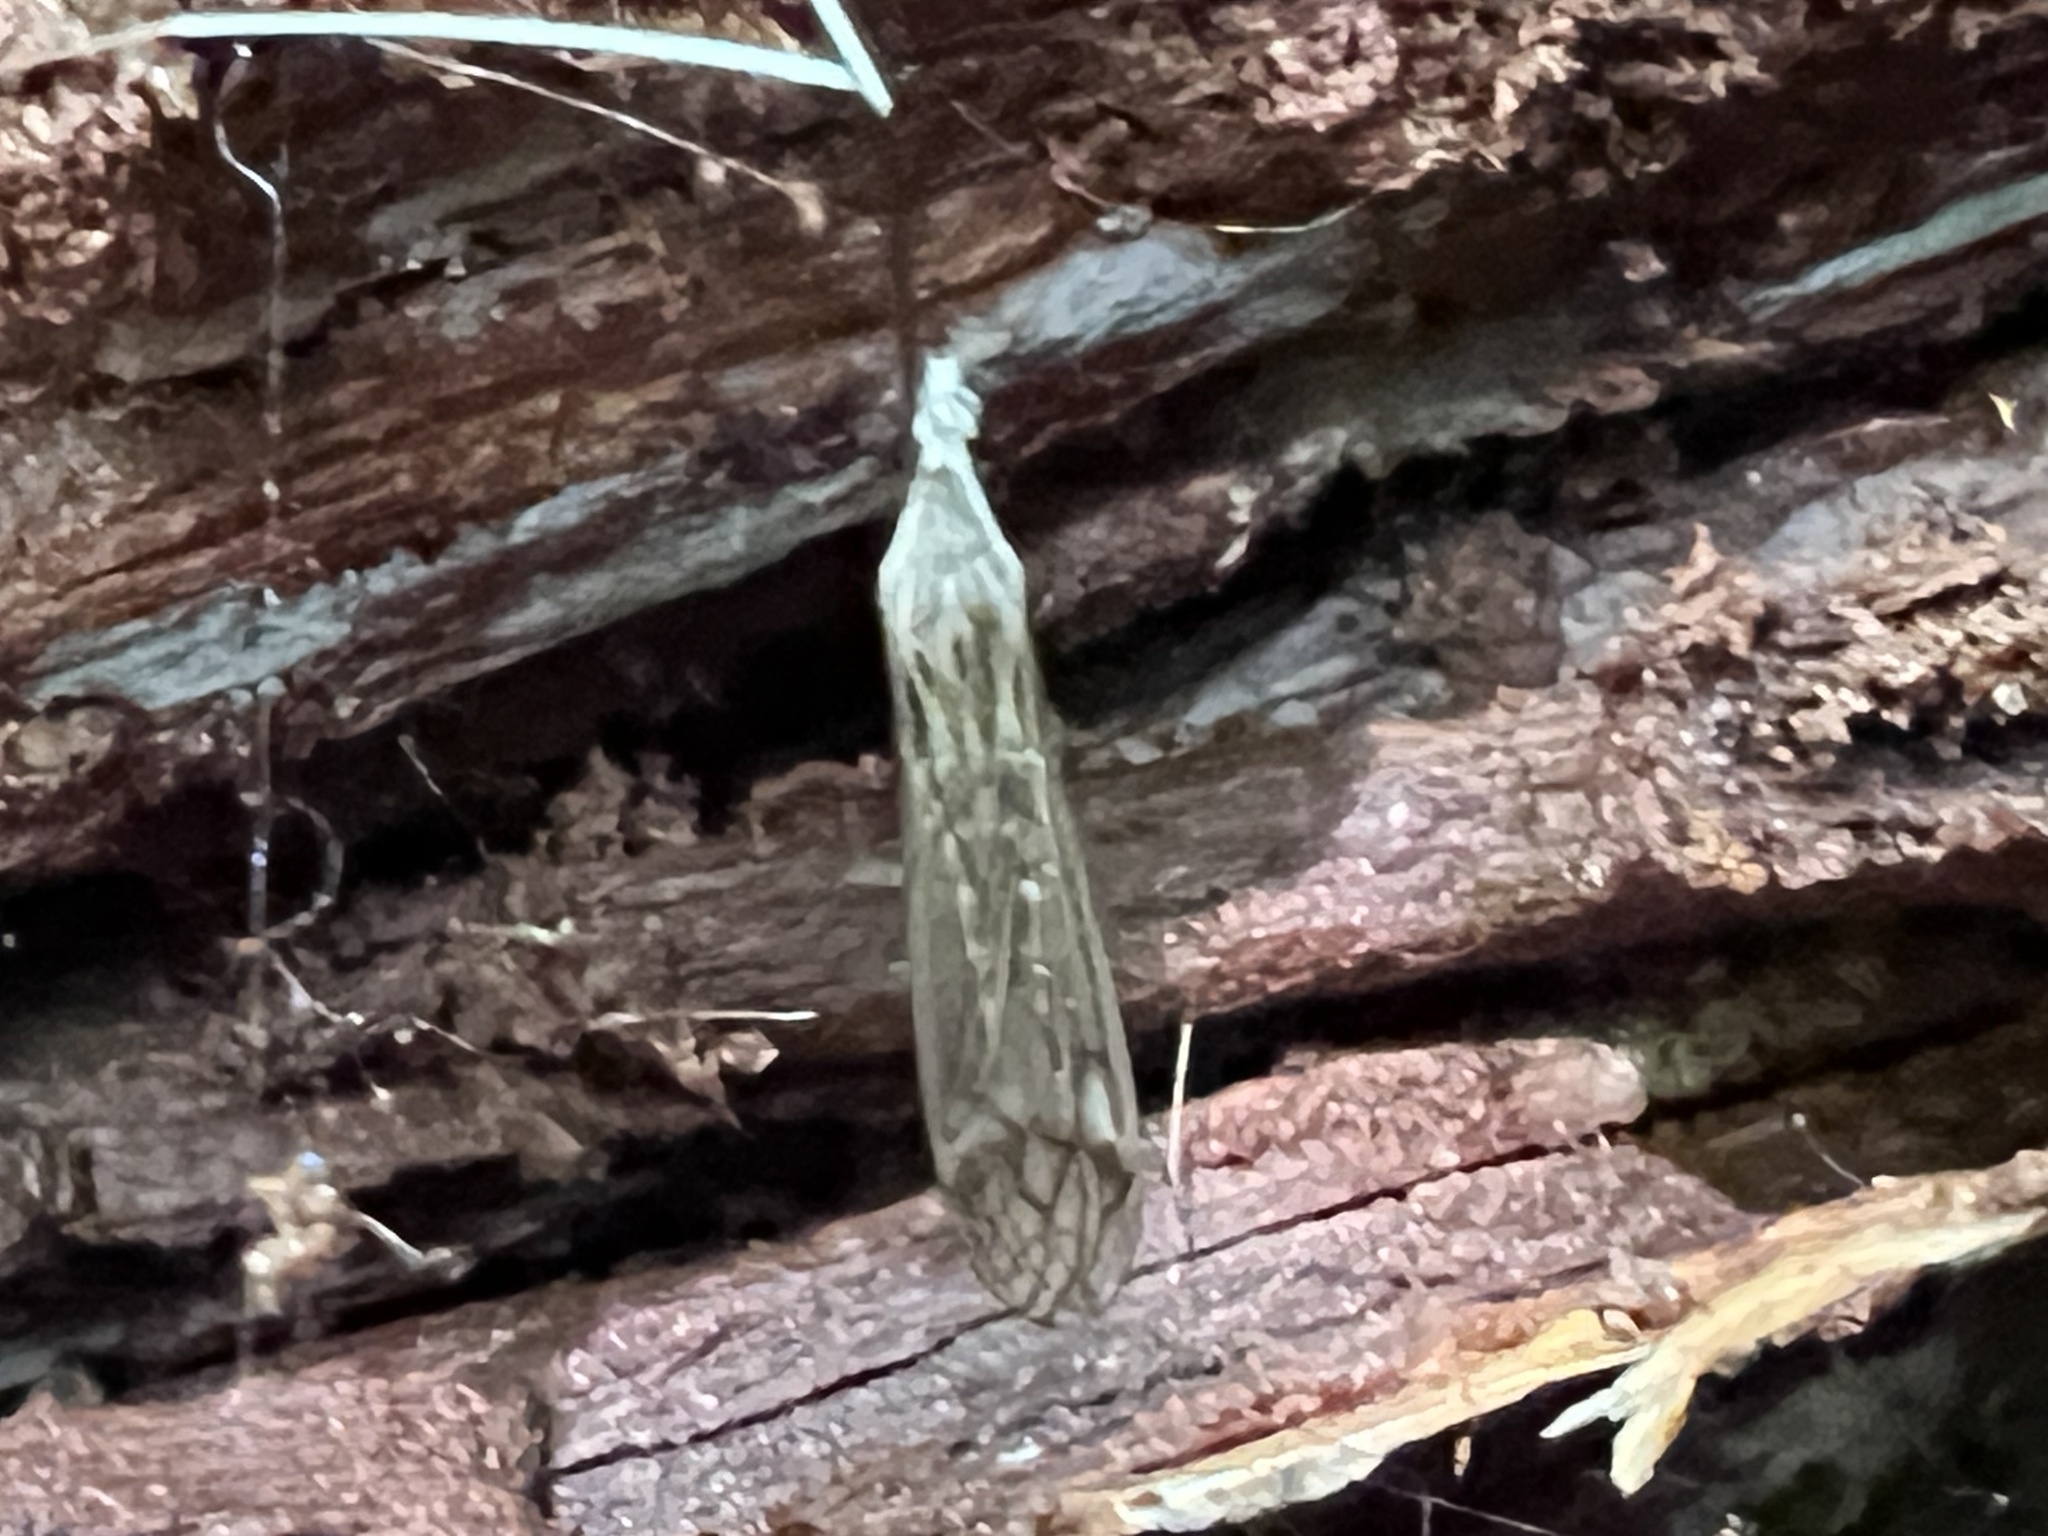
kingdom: Animalia
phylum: Arthropoda
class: Insecta
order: Diptera
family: Tipulidae
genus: Brachypremna
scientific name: Brachypremna dispellens
